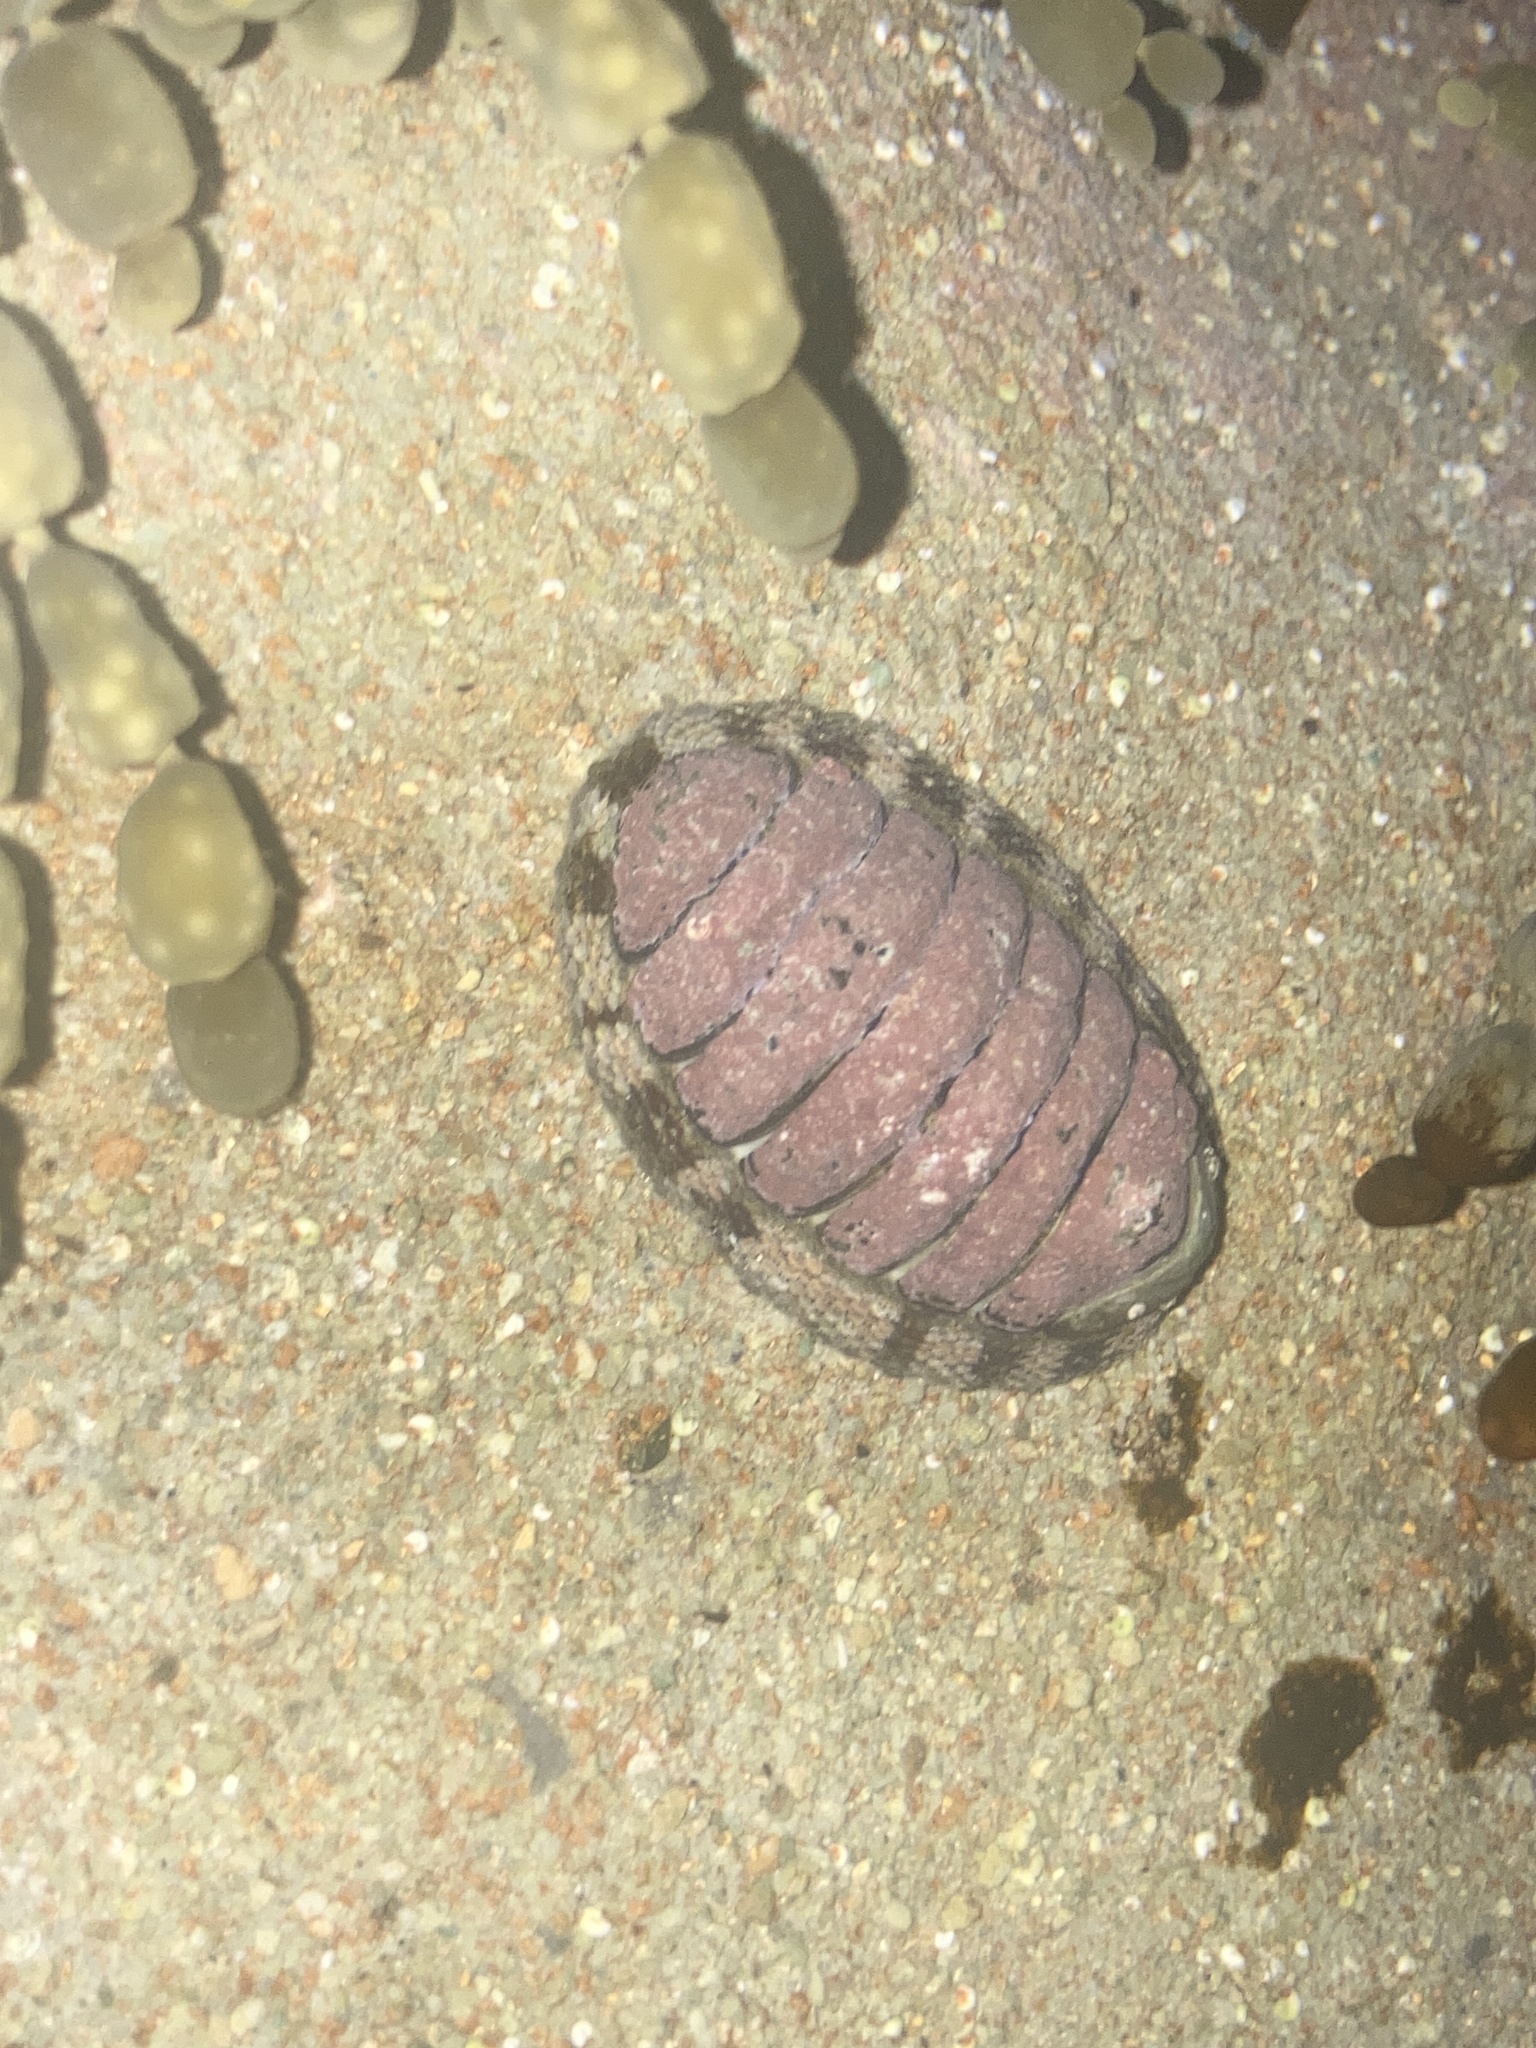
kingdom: Animalia
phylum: Mollusca
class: Polyplacophora
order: Chitonida
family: Chitonidae
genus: Sypharochiton
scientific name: Sypharochiton pelliserpentis
